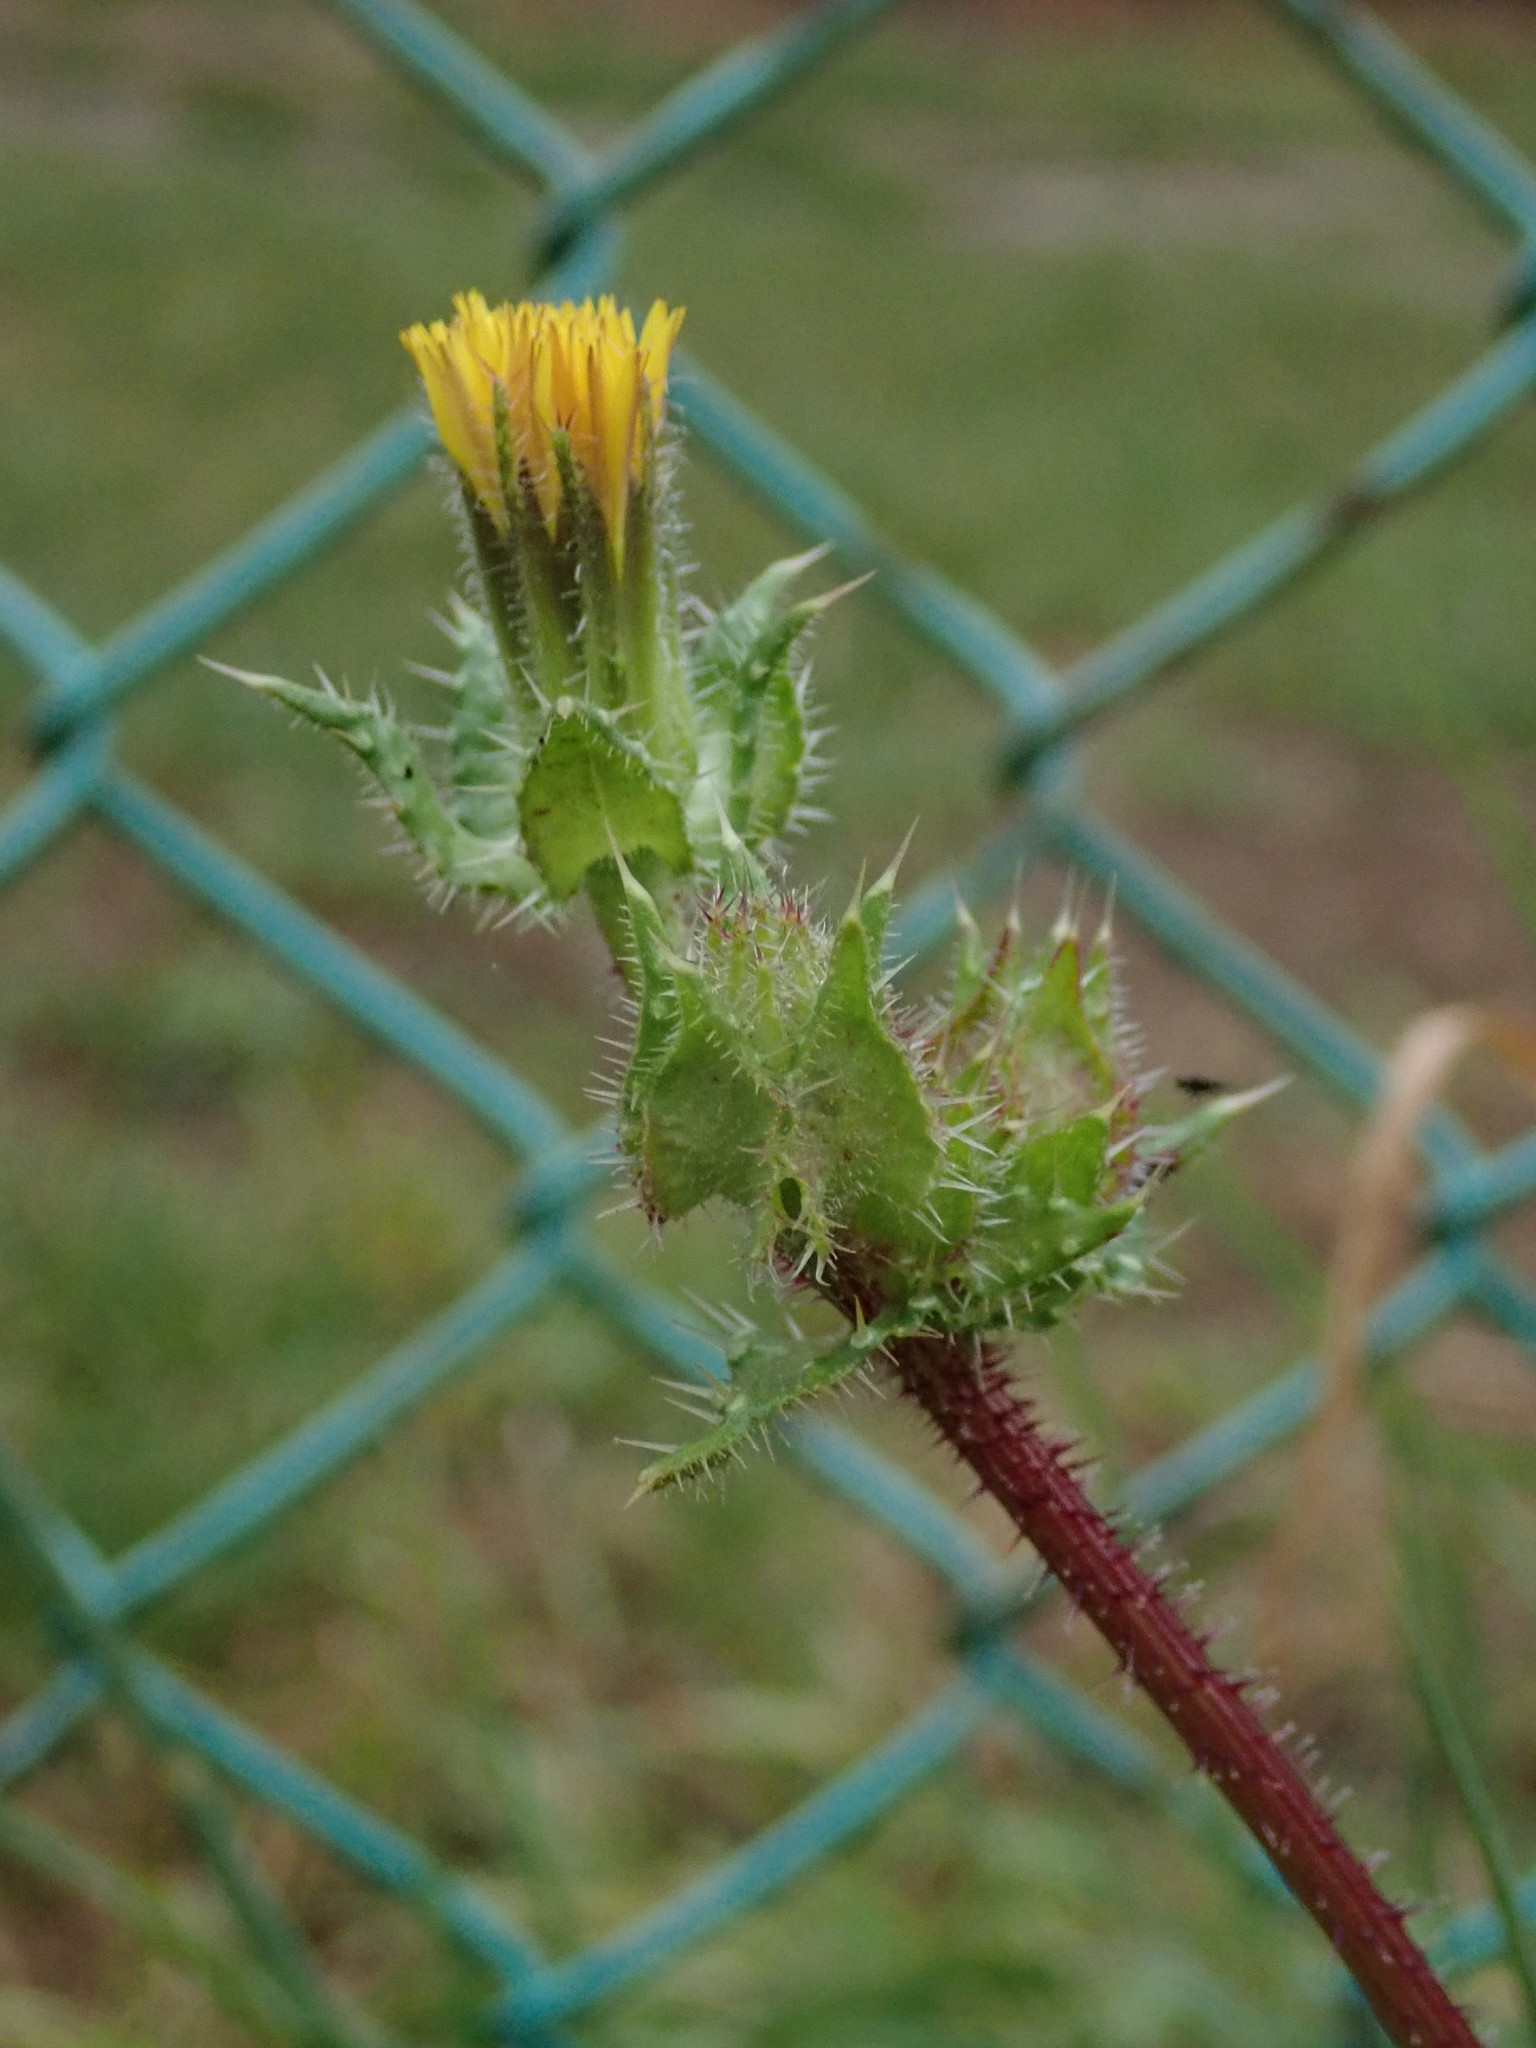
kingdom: Plantae
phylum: Tracheophyta
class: Magnoliopsida
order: Asterales
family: Asteraceae
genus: Helminthotheca
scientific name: Helminthotheca echioides
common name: Ox-tongue
